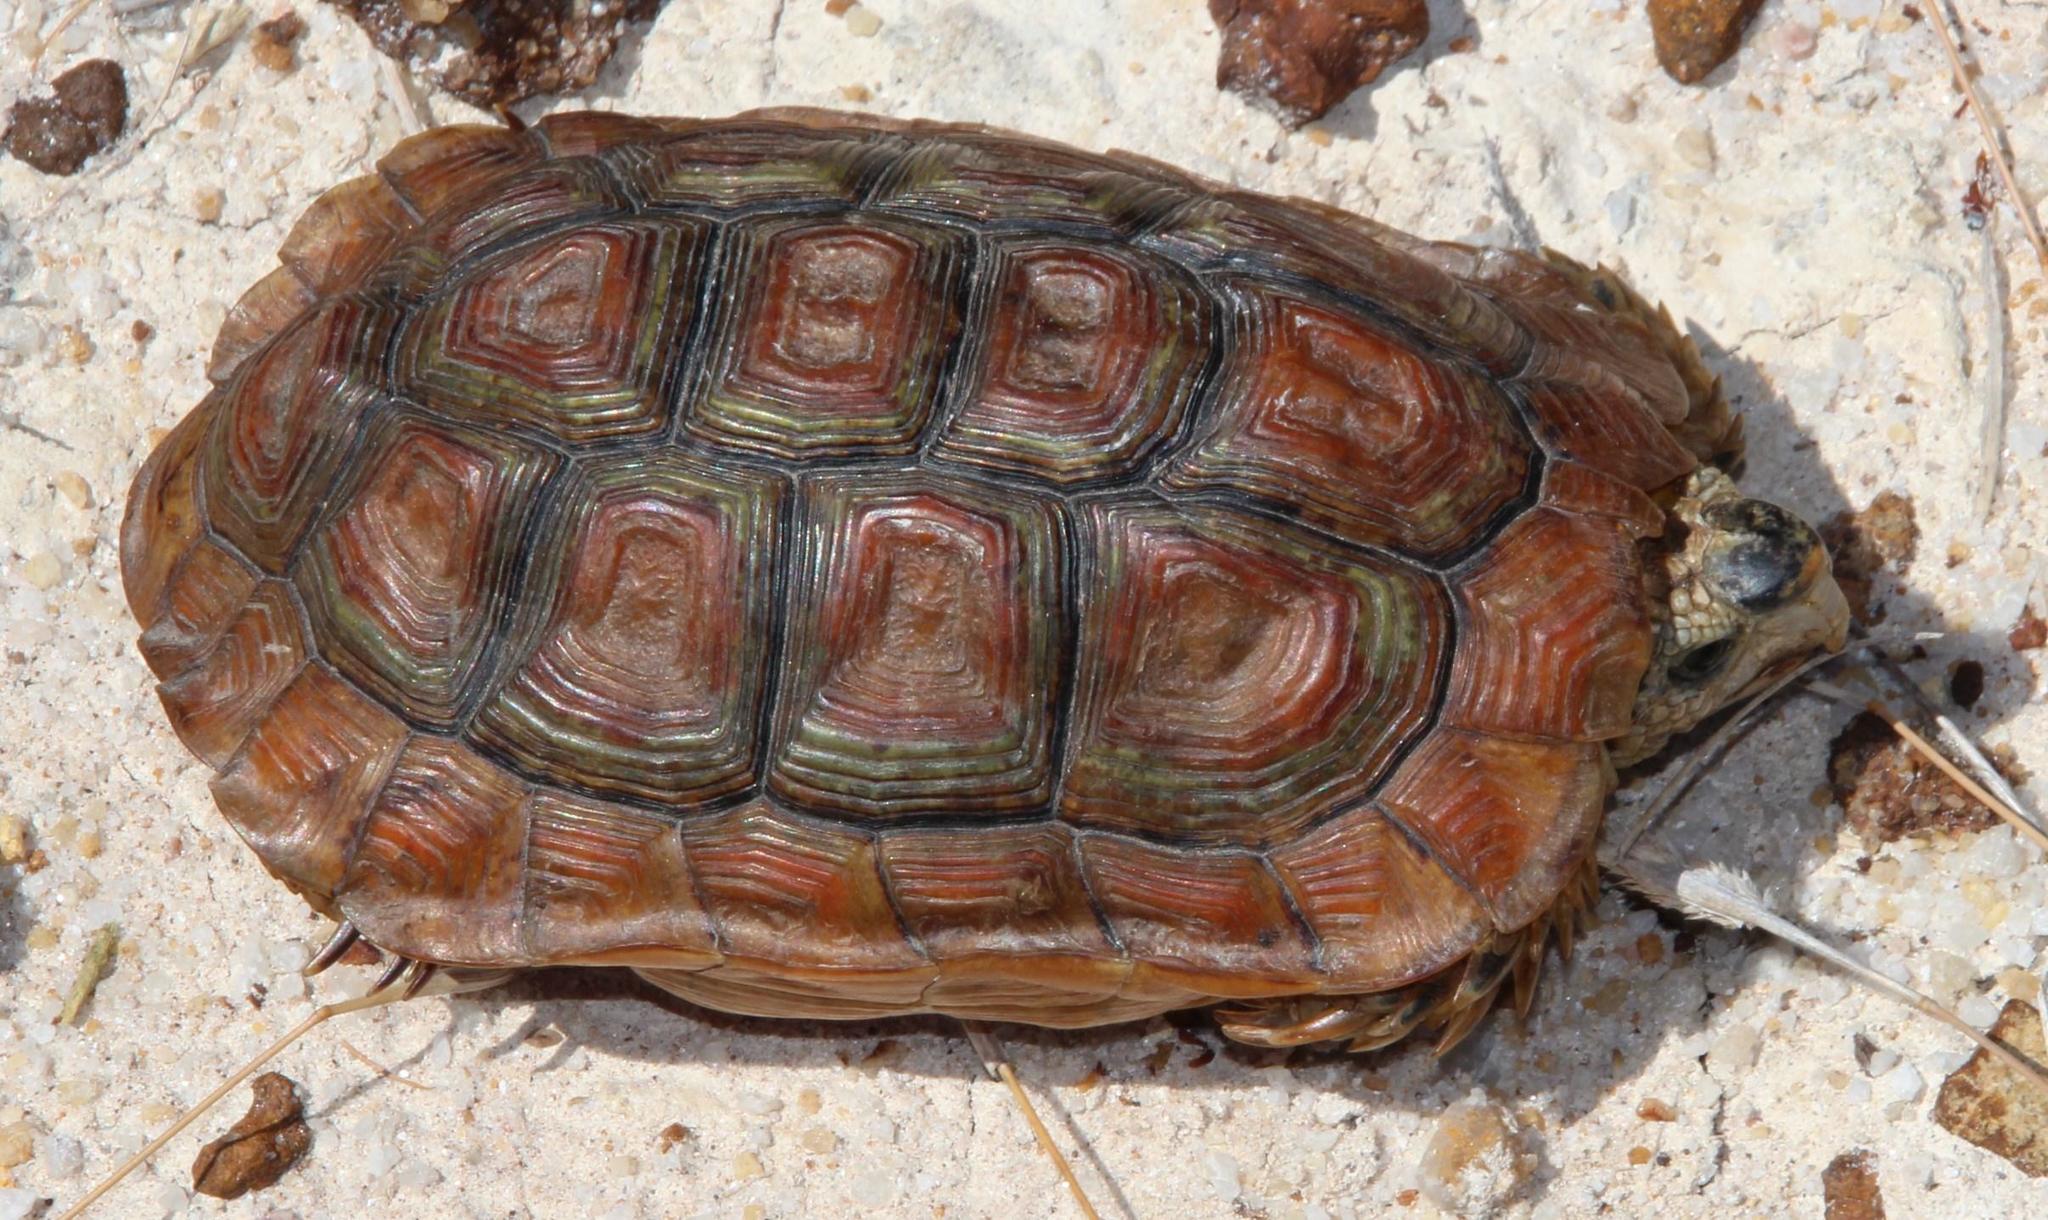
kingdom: Animalia
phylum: Chordata
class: Testudines
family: Testudinidae
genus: Homopus
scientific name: Homopus areolatus
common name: Parrot-beaked tortoise
